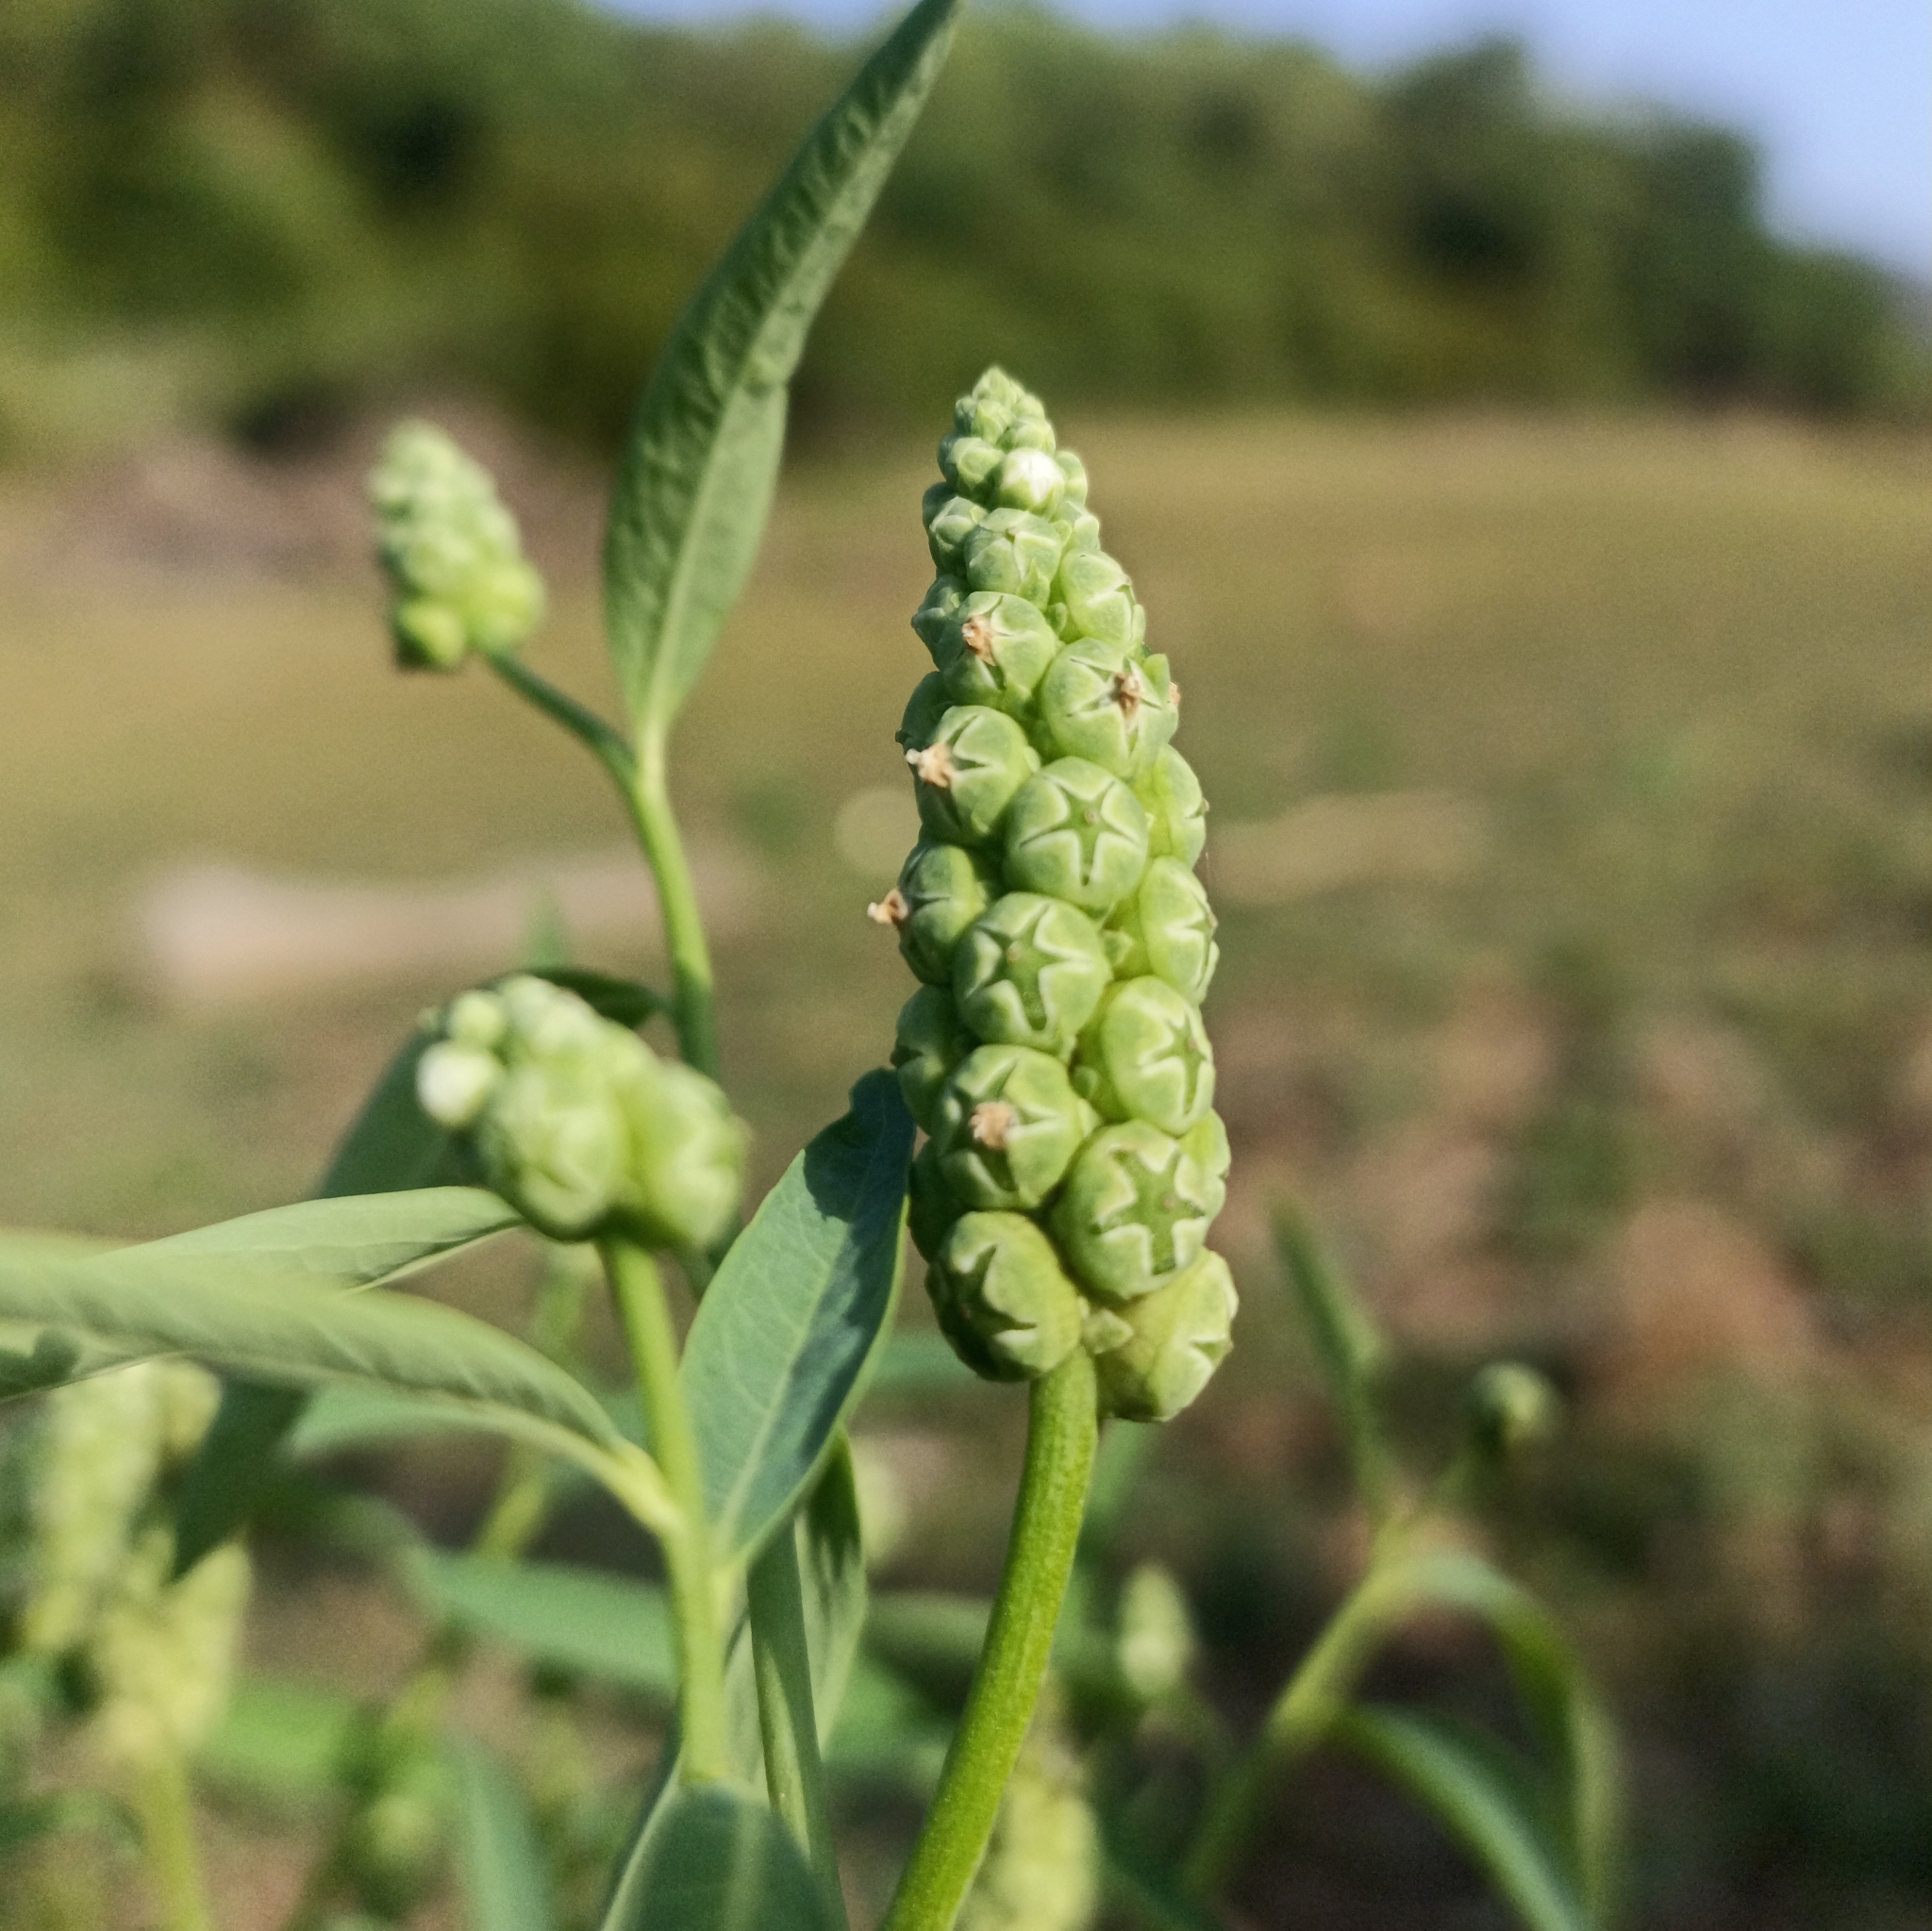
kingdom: Plantae
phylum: Tracheophyta
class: Magnoliopsida
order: Solanales
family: Sphenocleaceae
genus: Sphenoclea
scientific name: Sphenoclea zeylanica
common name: Chickenspike
